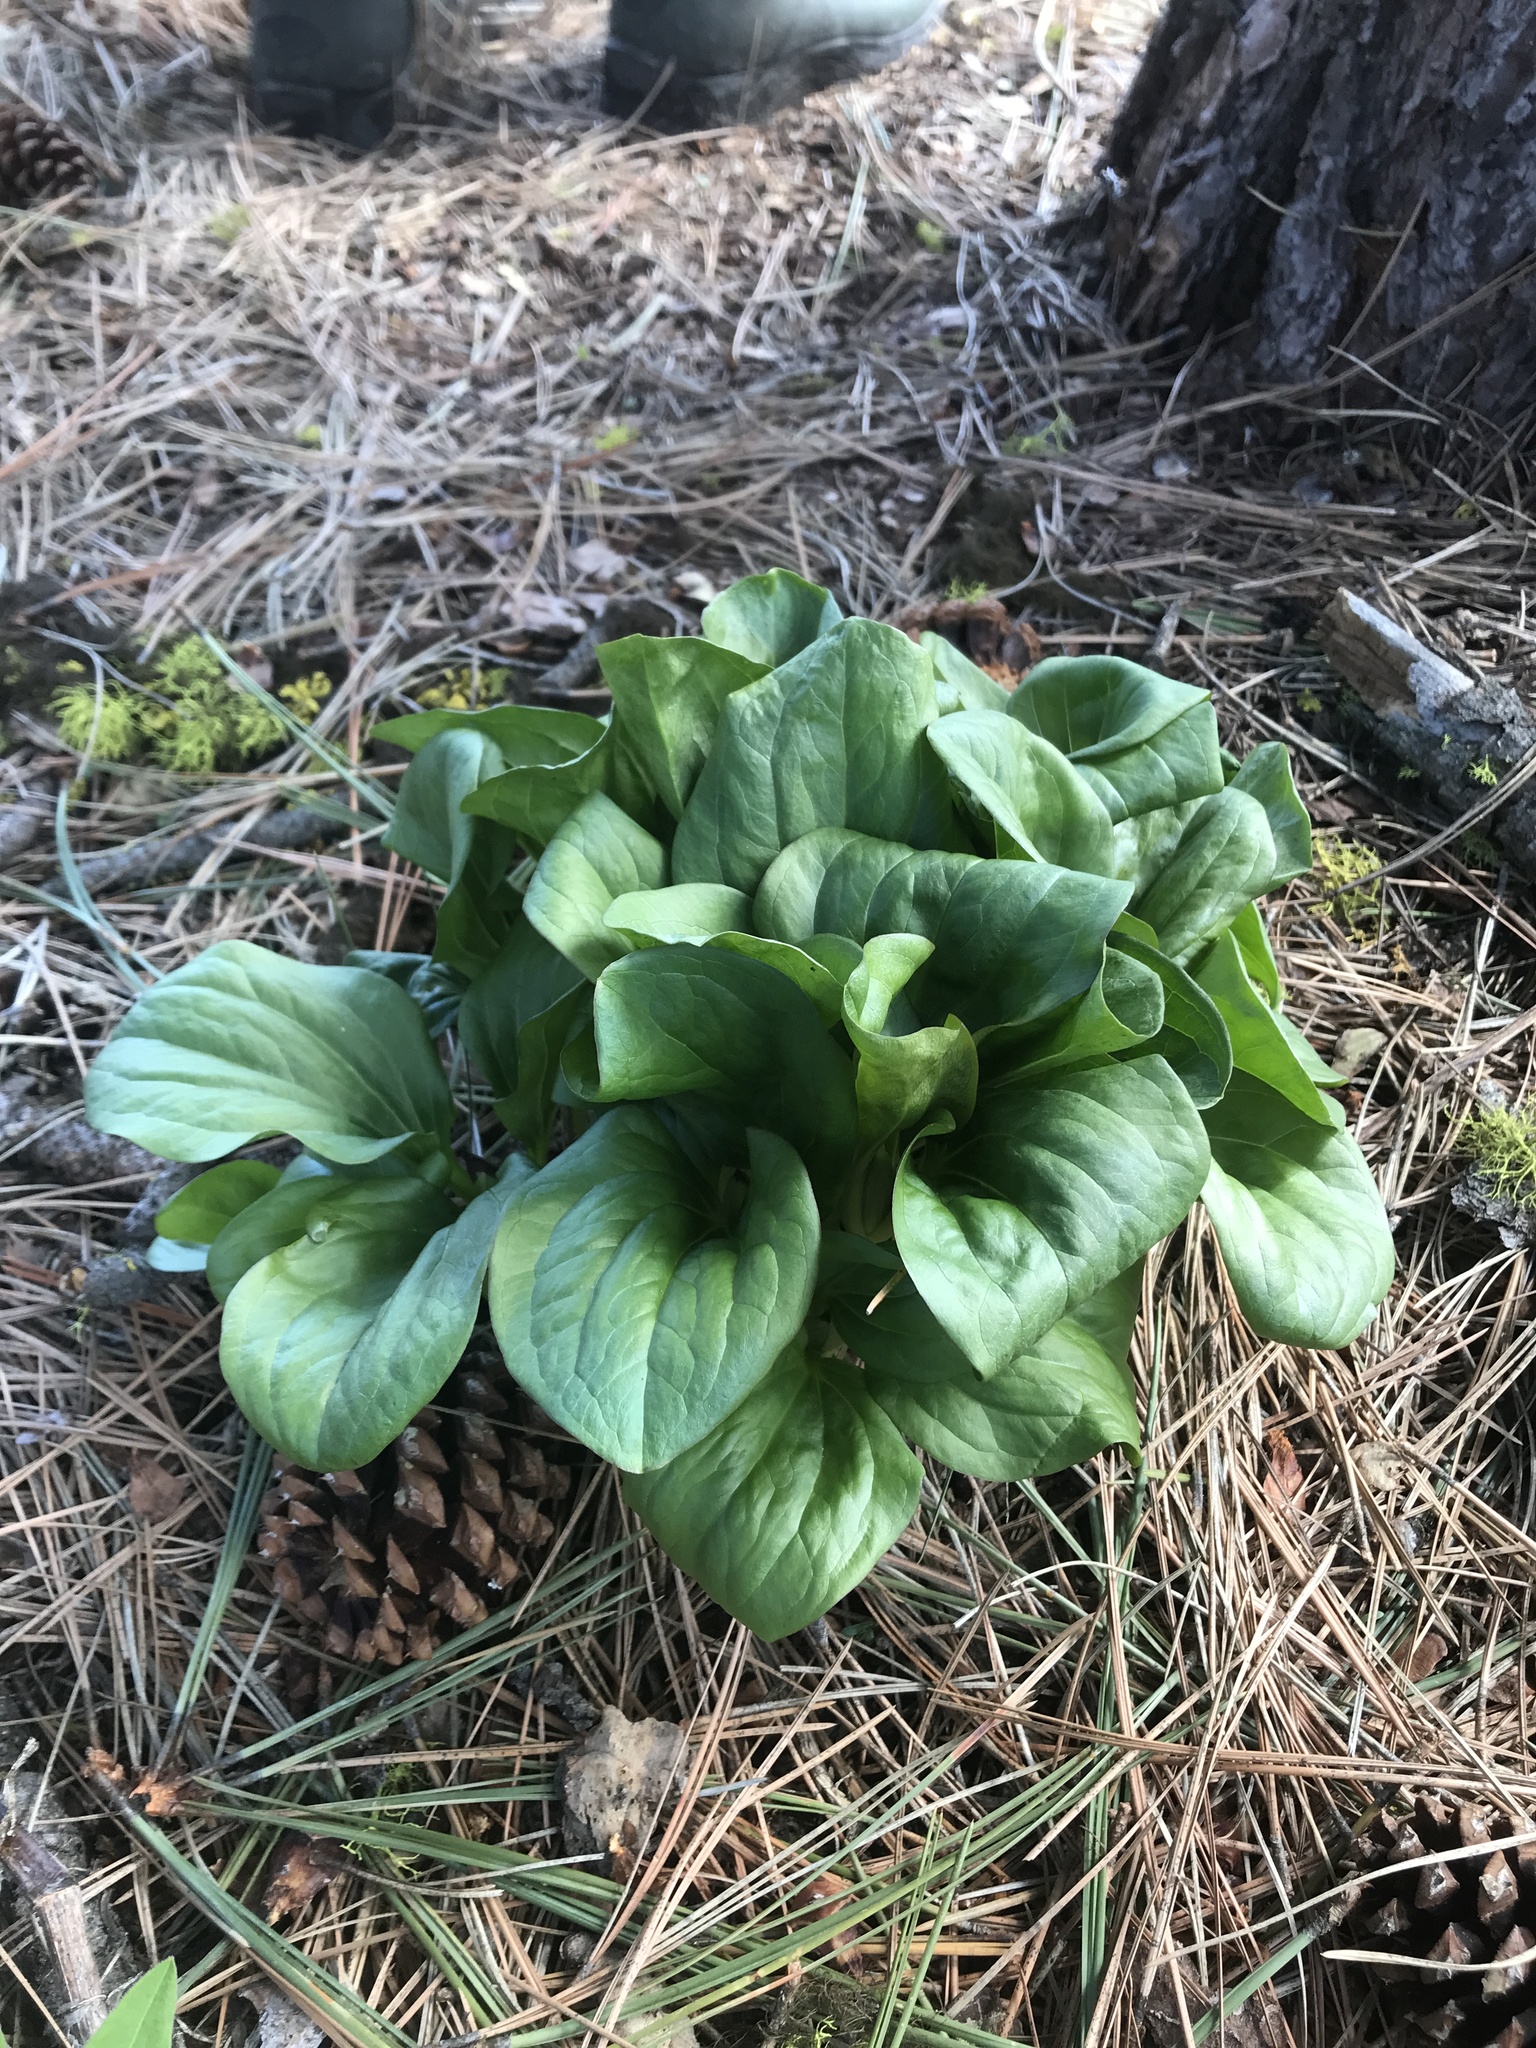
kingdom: Plantae
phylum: Tracheophyta
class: Liliopsida
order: Liliales
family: Melanthiaceae
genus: Trillium
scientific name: Trillium petiolatum
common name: Idaho trillium
